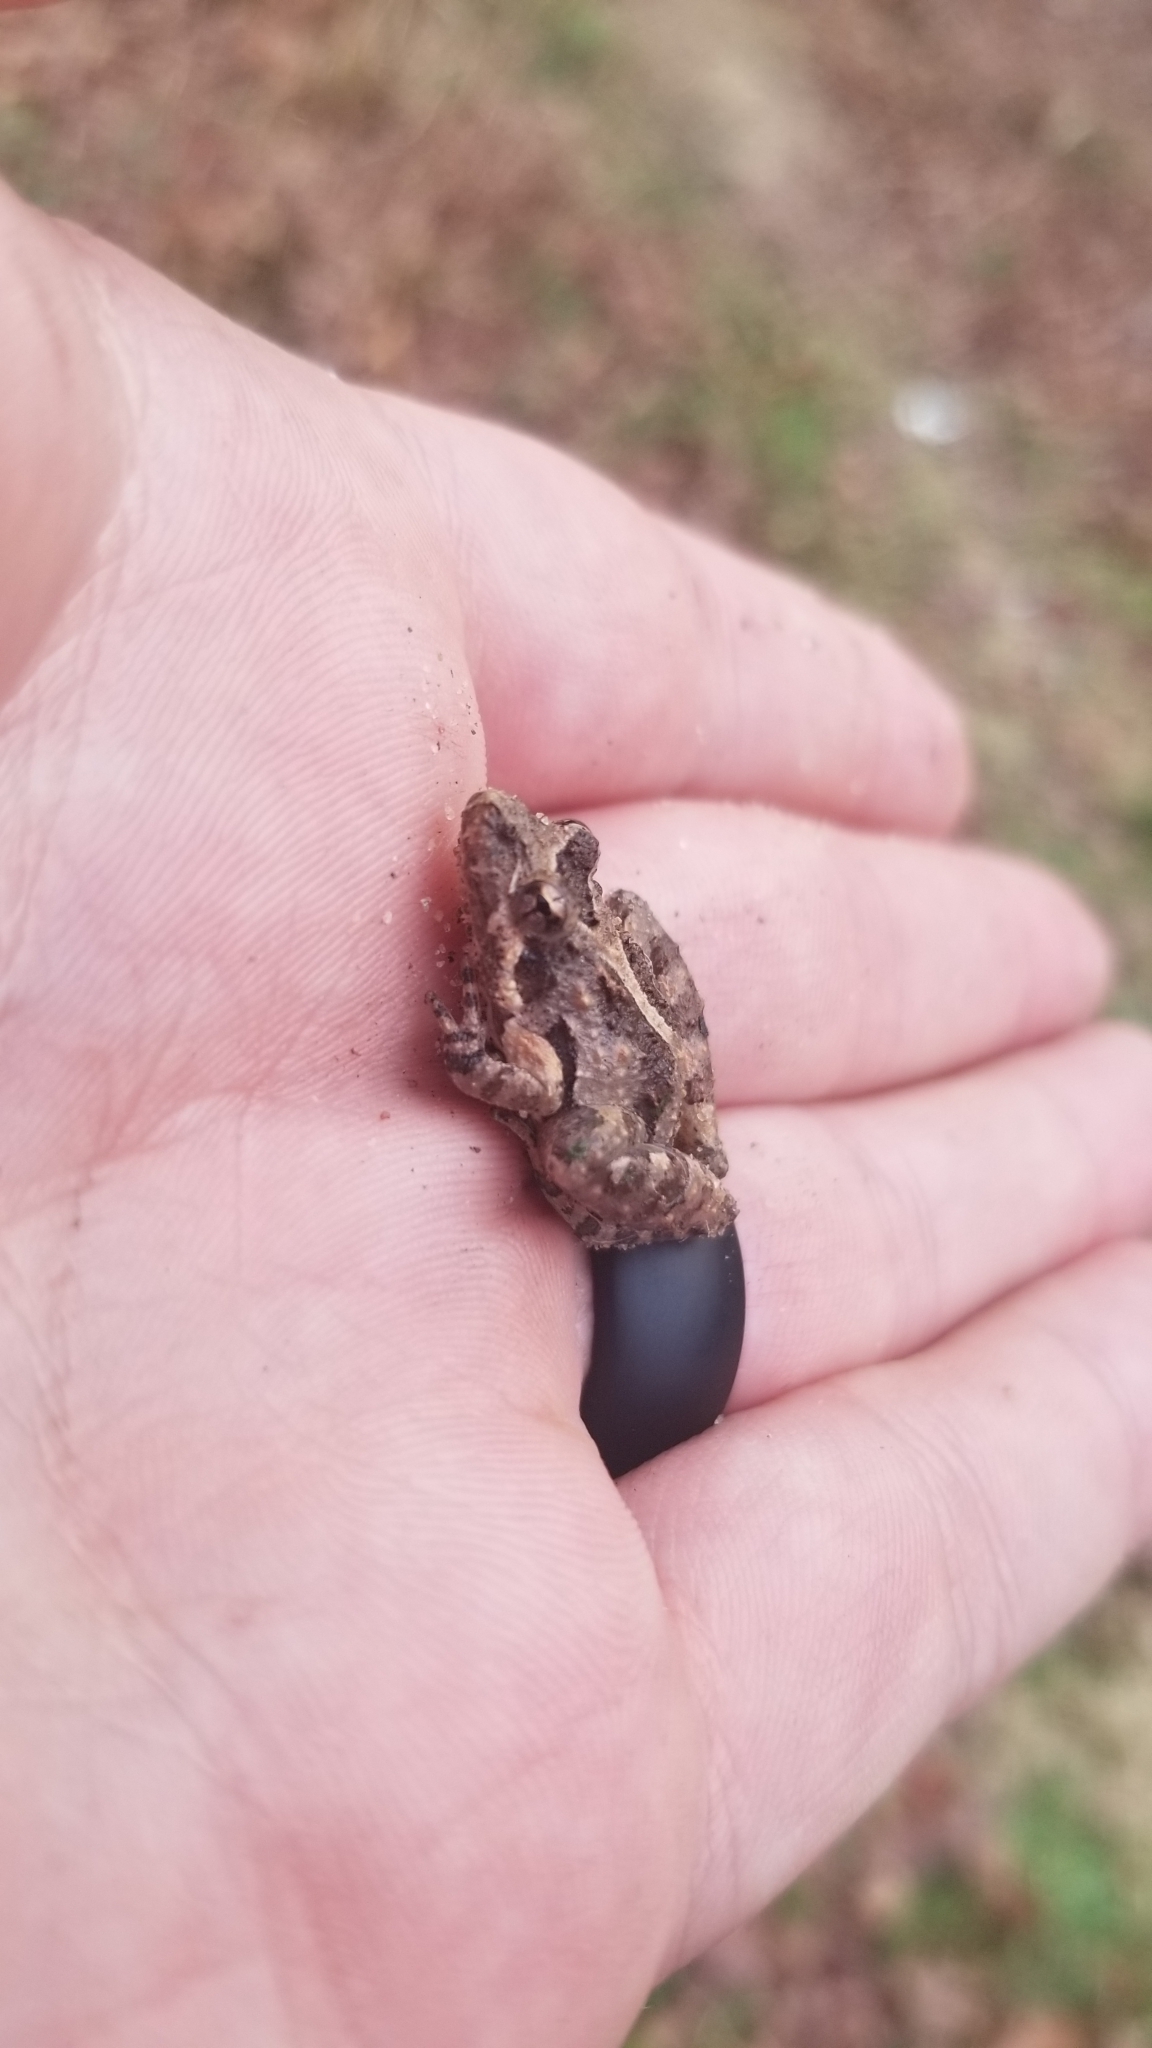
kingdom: Animalia
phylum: Chordata
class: Amphibia
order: Anura
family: Hylidae
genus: Acris
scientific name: Acris gryllus
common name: Southern cricket frog
